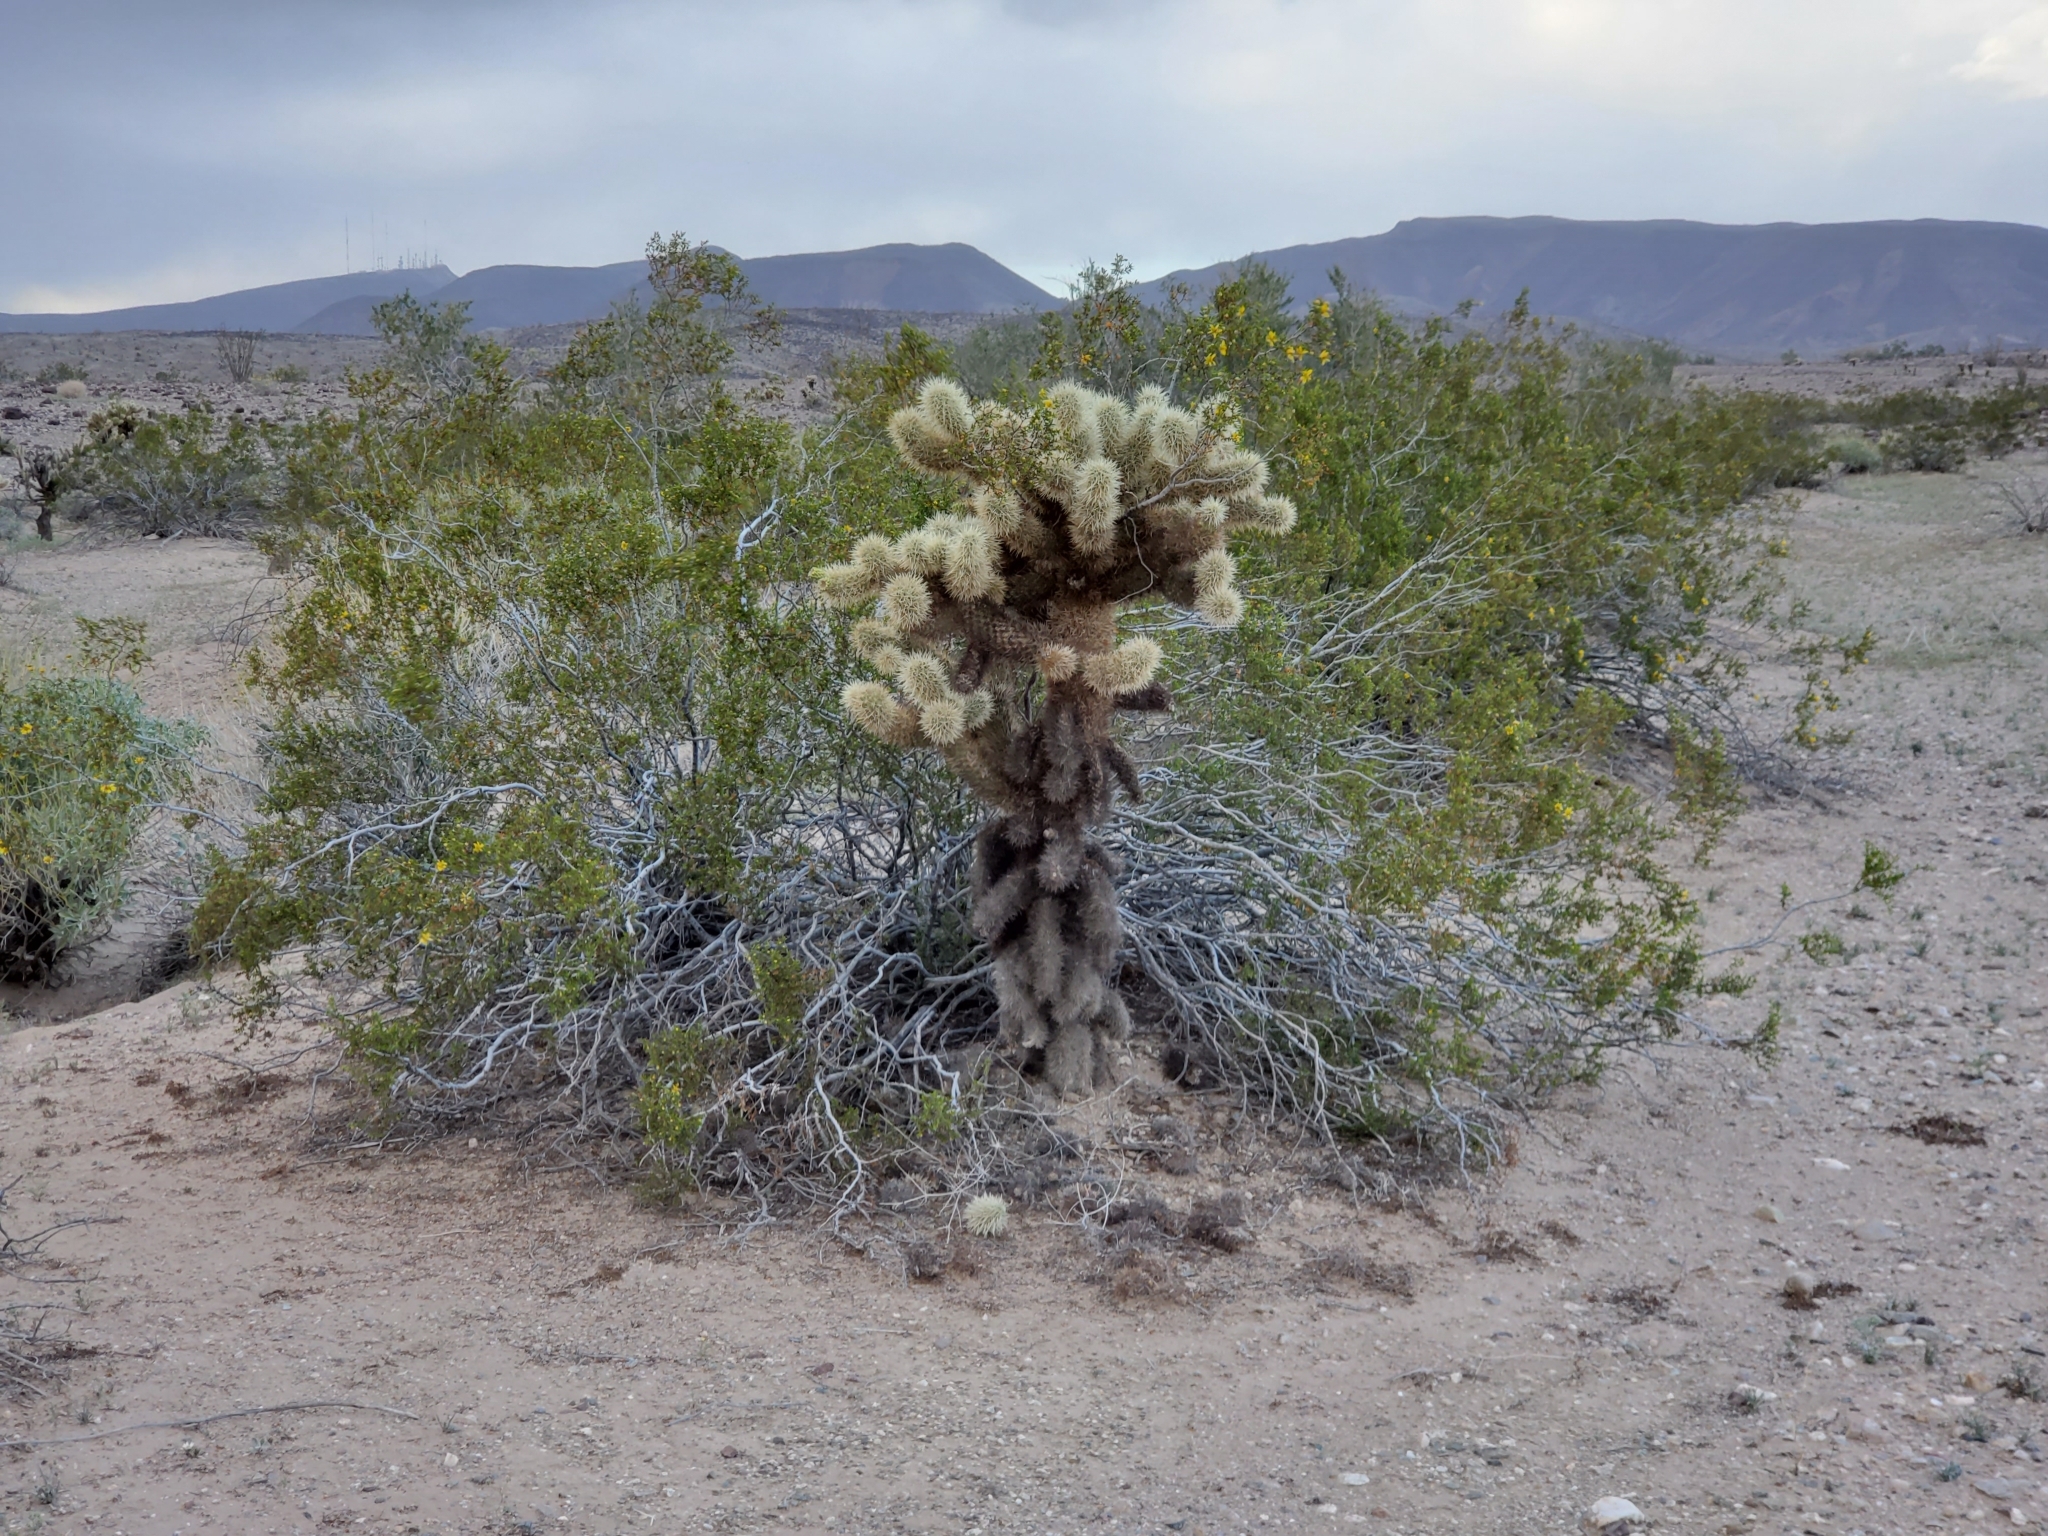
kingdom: Plantae
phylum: Tracheophyta
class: Magnoliopsida
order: Caryophyllales
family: Cactaceae
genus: Cylindropuntia
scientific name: Cylindropuntia fosbergii
